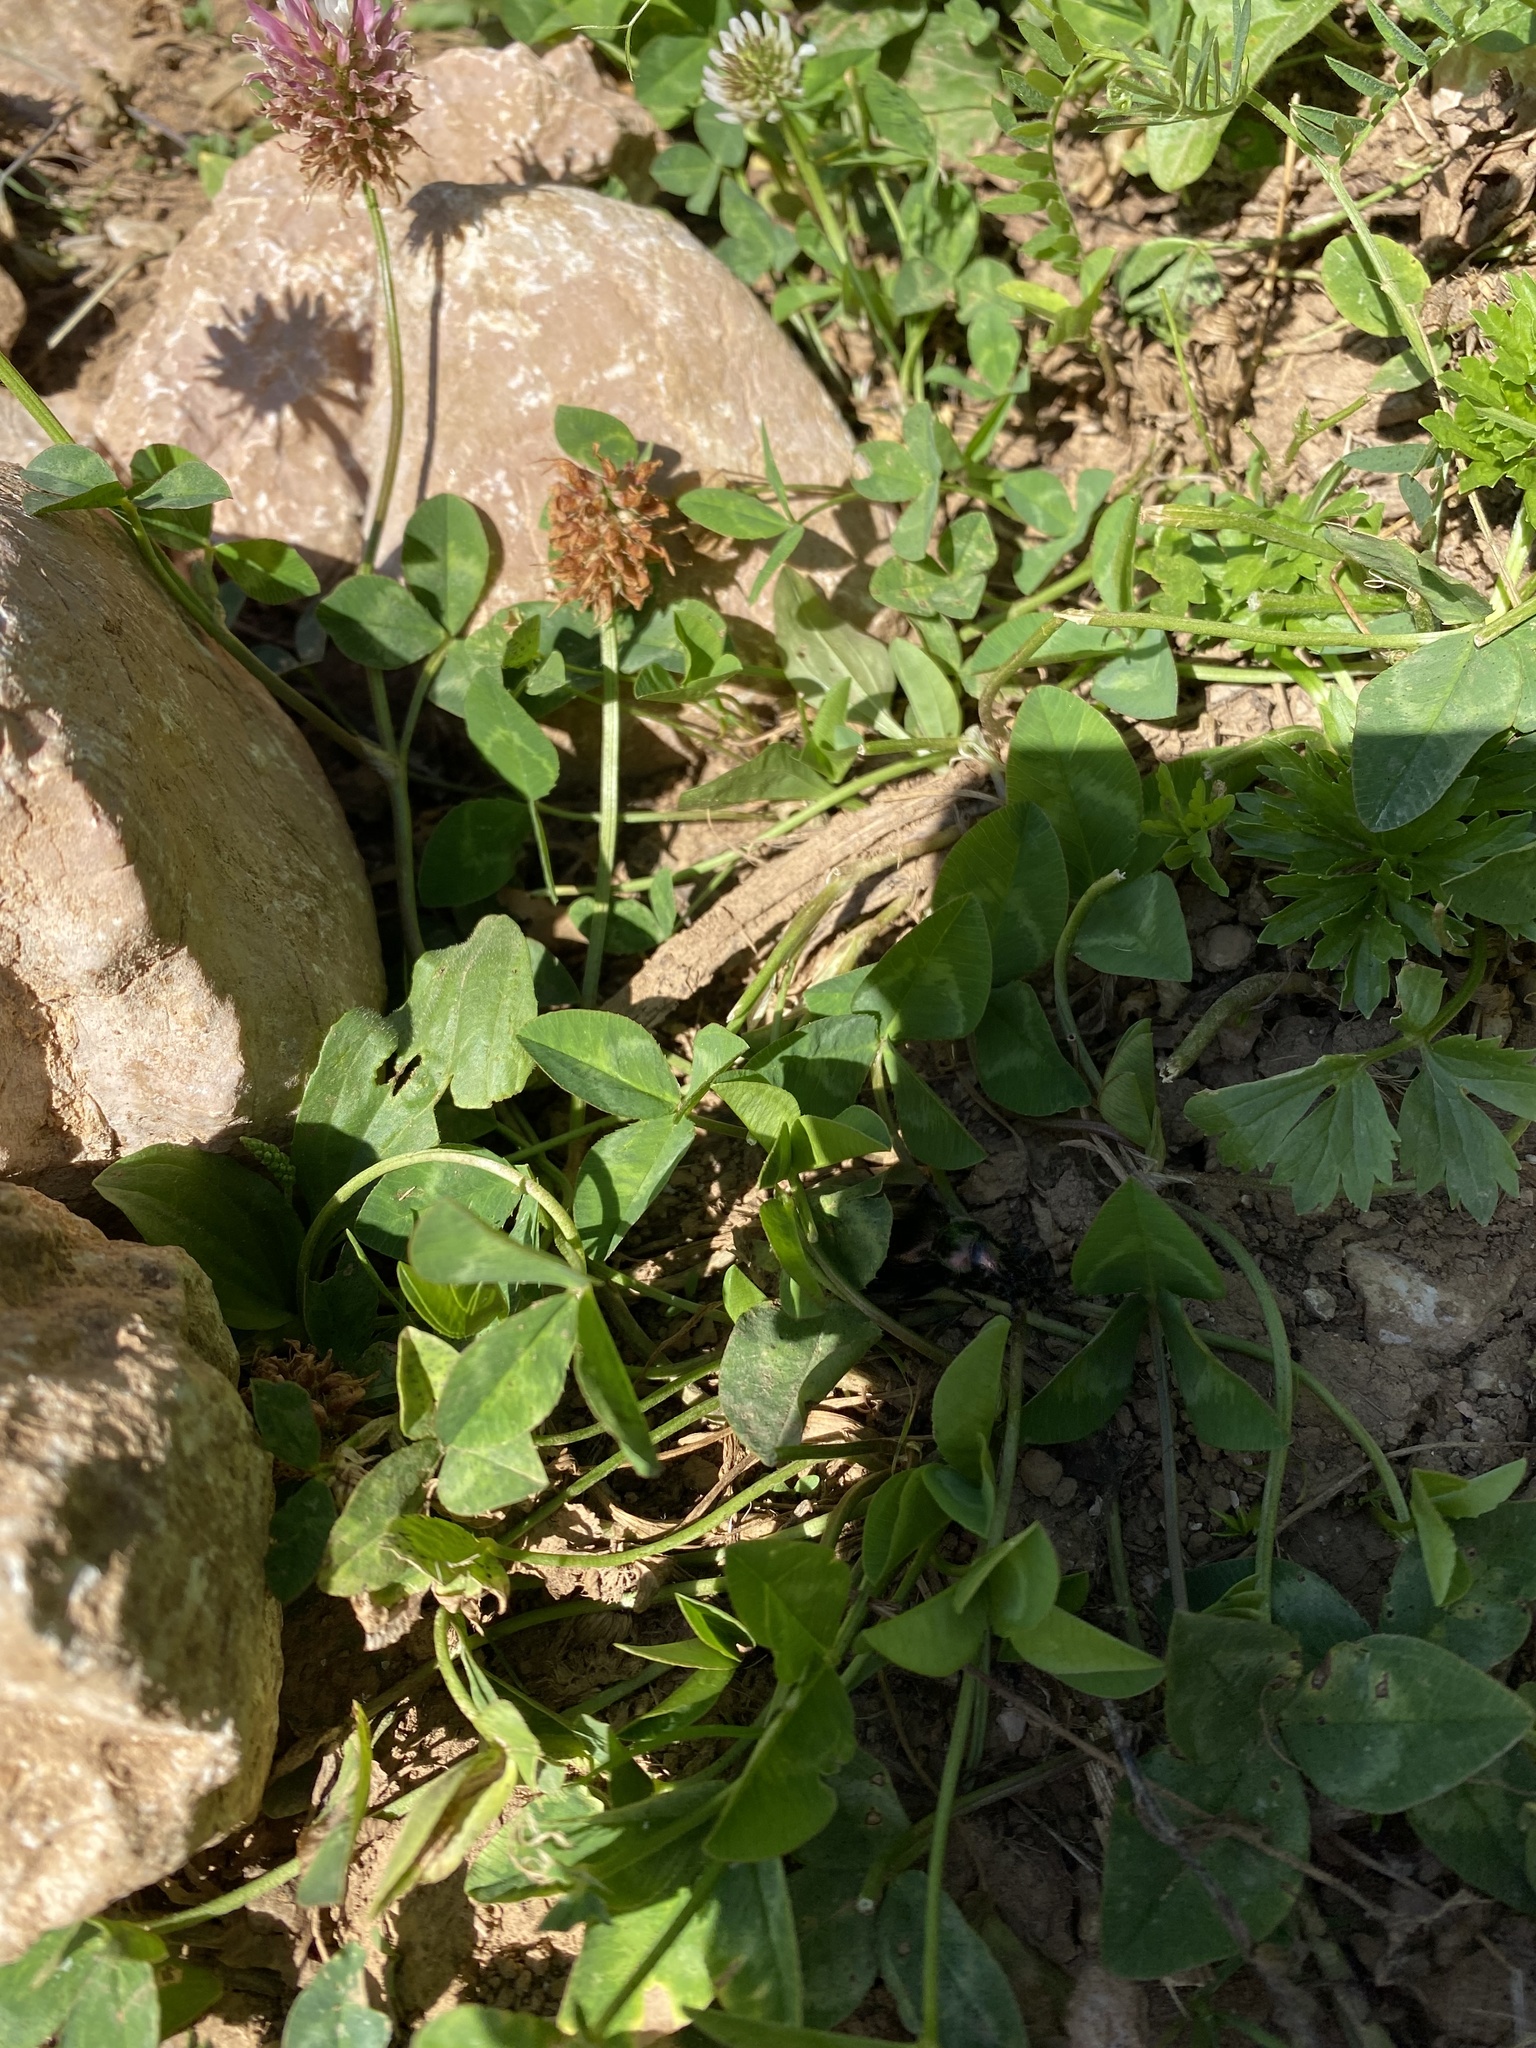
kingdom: Plantae
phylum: Tracheophyta
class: Magnoliopsida
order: Fabales
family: Fabaceae
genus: Trifolium
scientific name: Trifolium repens
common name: White clover
